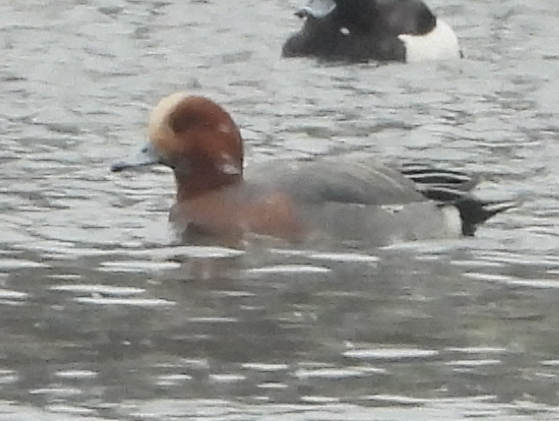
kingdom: Animalia
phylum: Chordata
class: Aves
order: Anseriformes
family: Anatidae
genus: Mareca
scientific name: Mareca penelope
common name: Eurasian wigeon
